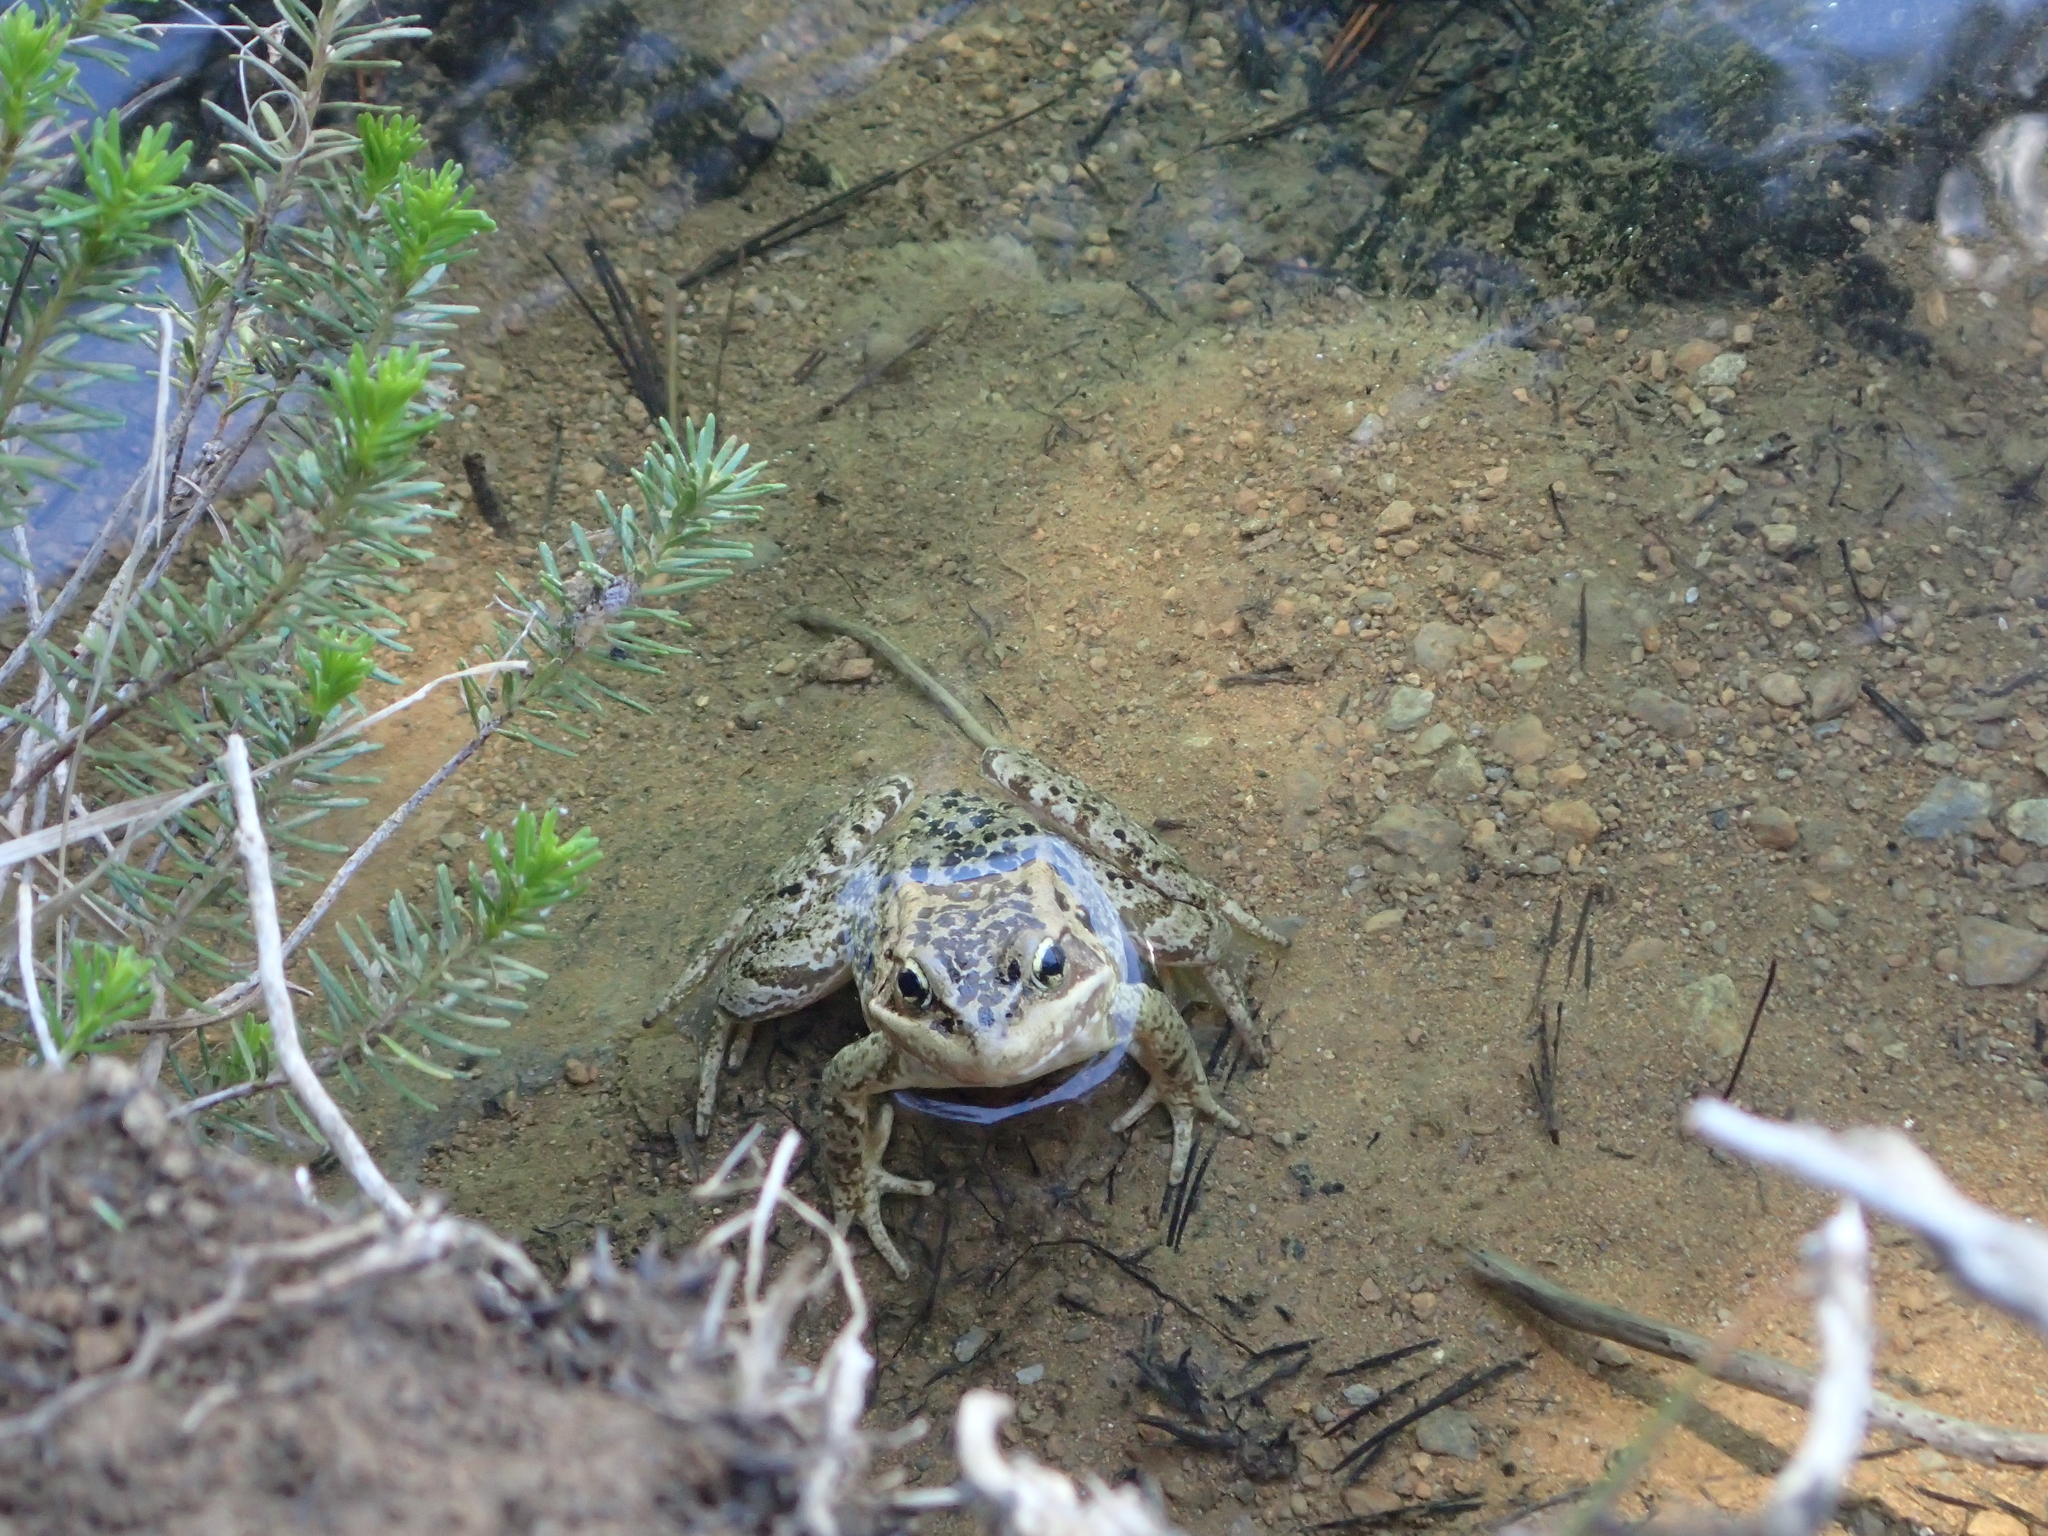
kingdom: Animalia
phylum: Chordata
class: Amphibia
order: Anura
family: Ranidae
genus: Rana
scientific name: Rana cascadae
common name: Cascades frog
